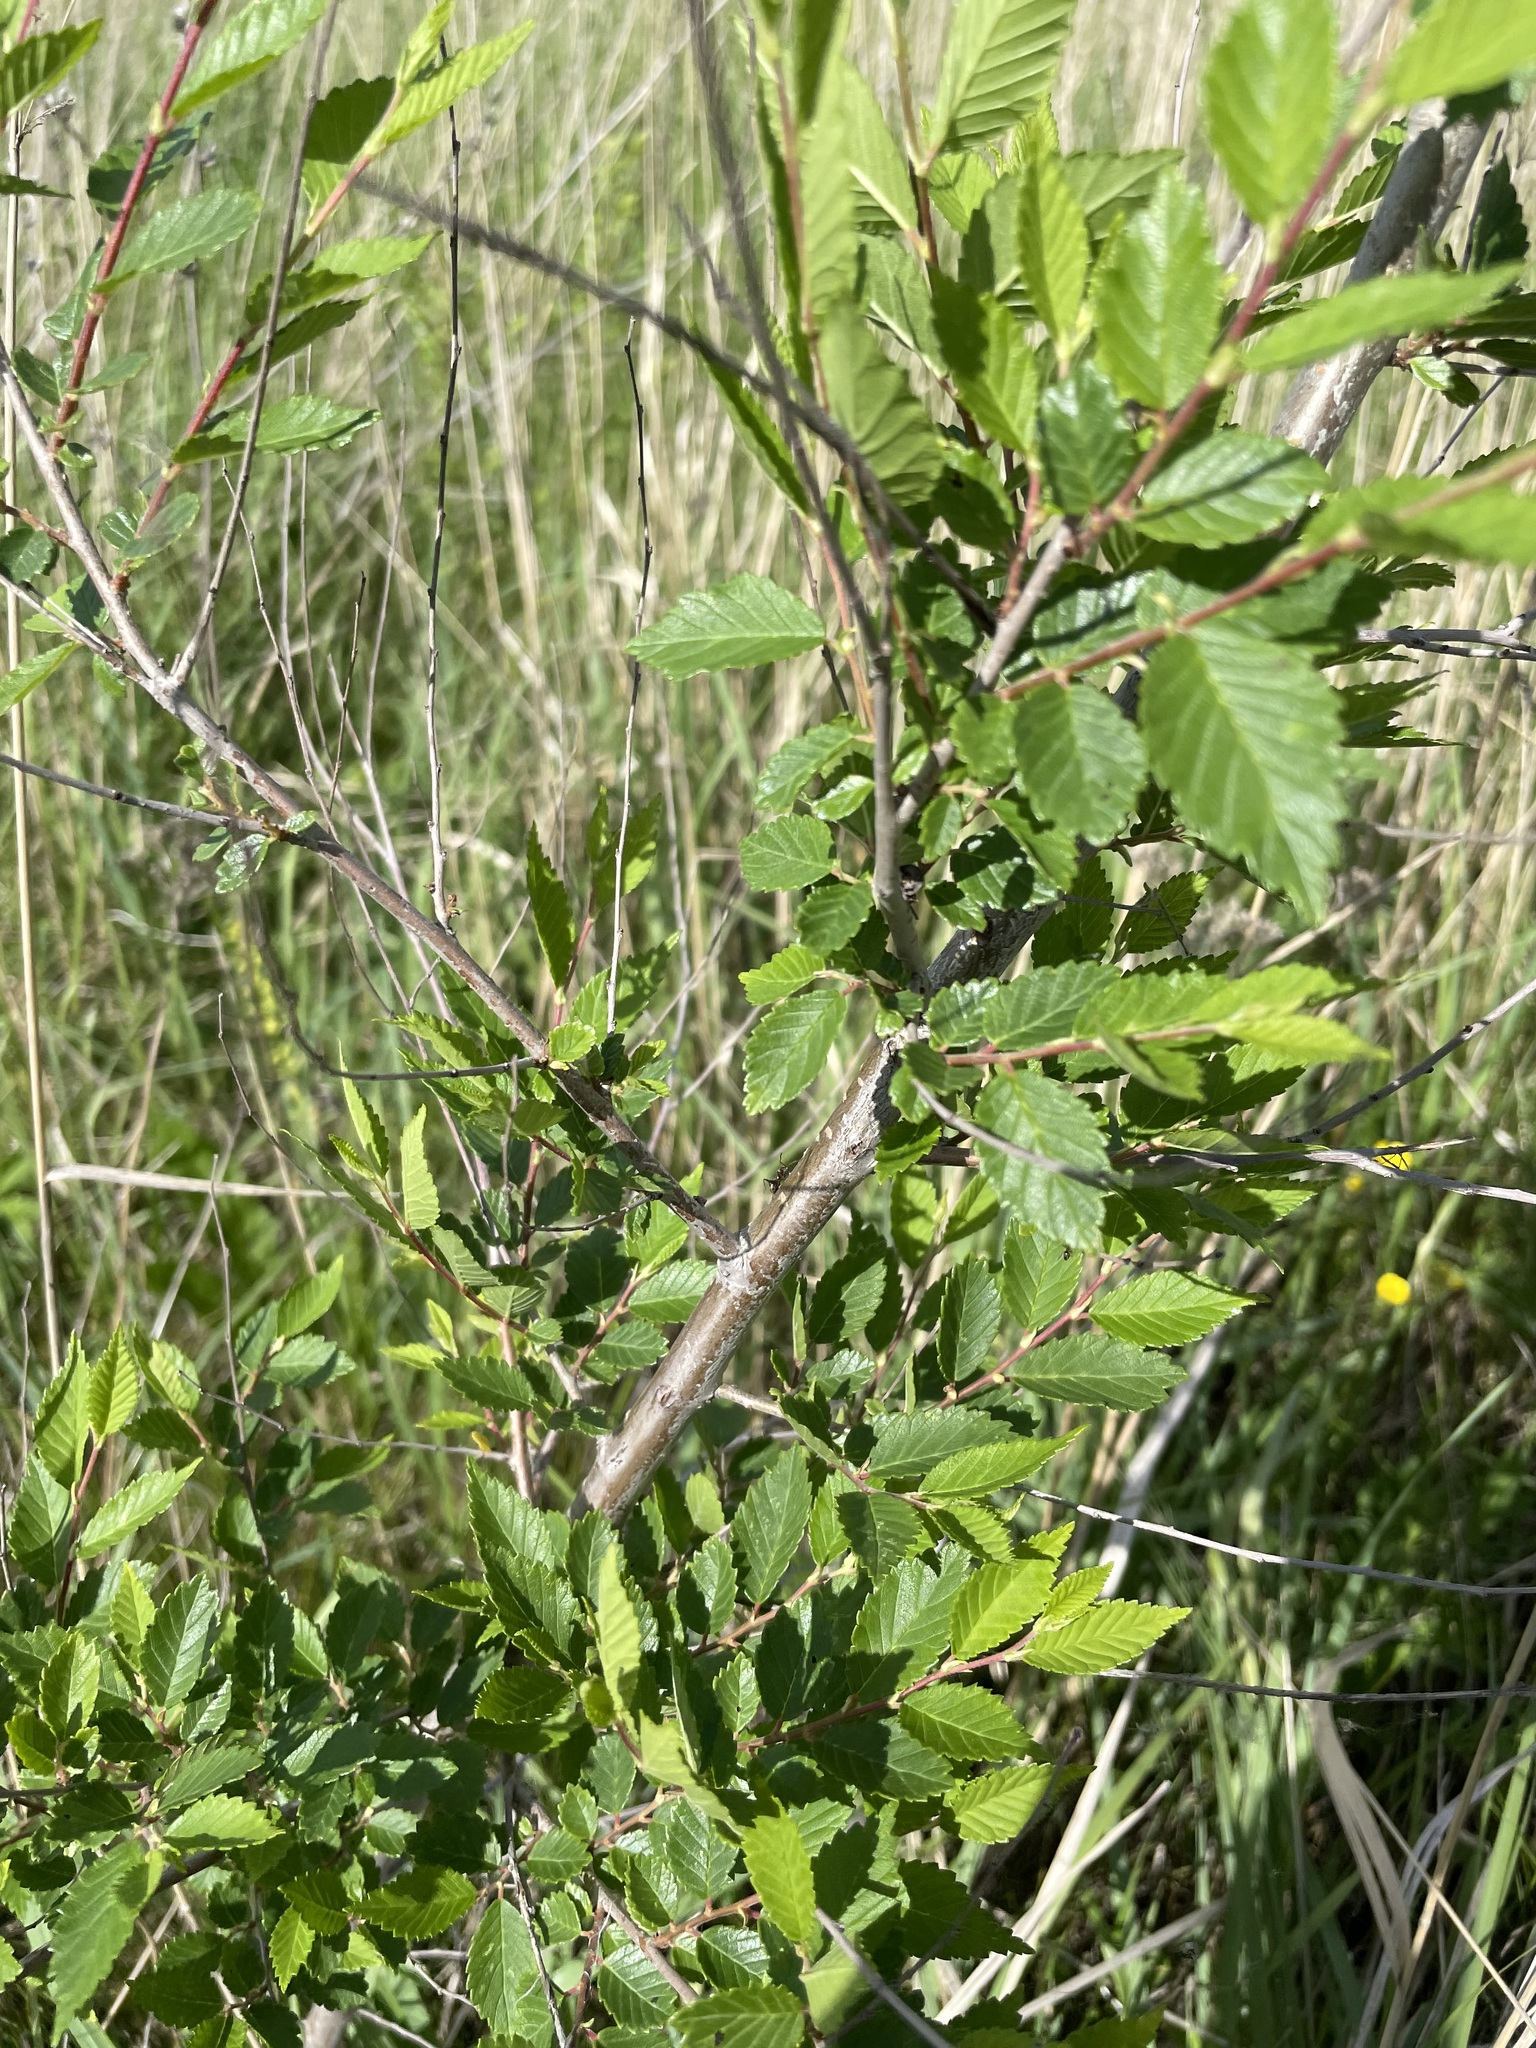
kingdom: Plantae
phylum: Tracheophyta
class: Magnoliopsida
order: Rosales
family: Ulmaceae
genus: Ulmus
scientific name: Ulmus pumila
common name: Siberian elm
